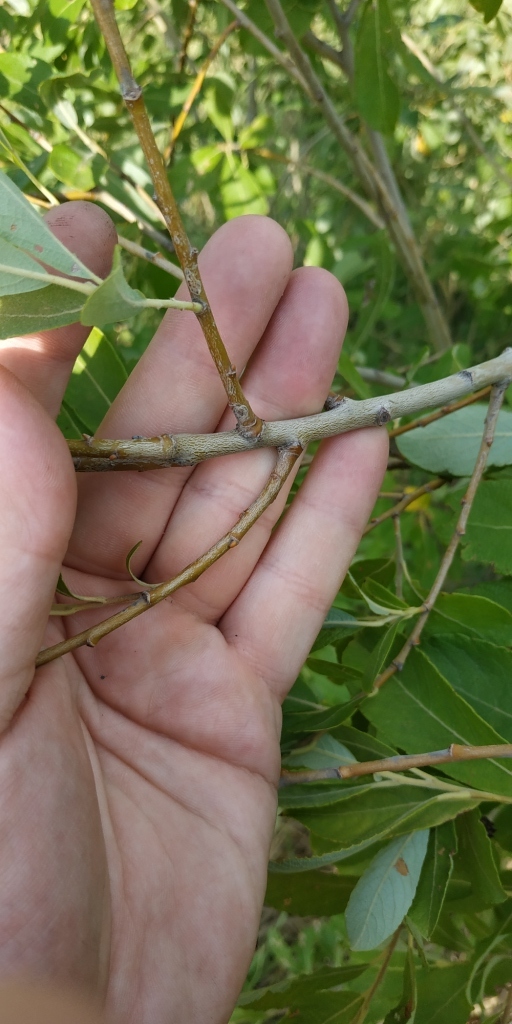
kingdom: Plantae
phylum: Tracheophyta
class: Magnoliopsida
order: Malpighiales
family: Salicaceae
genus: Salix
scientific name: Salix cinerea
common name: Common sallow
